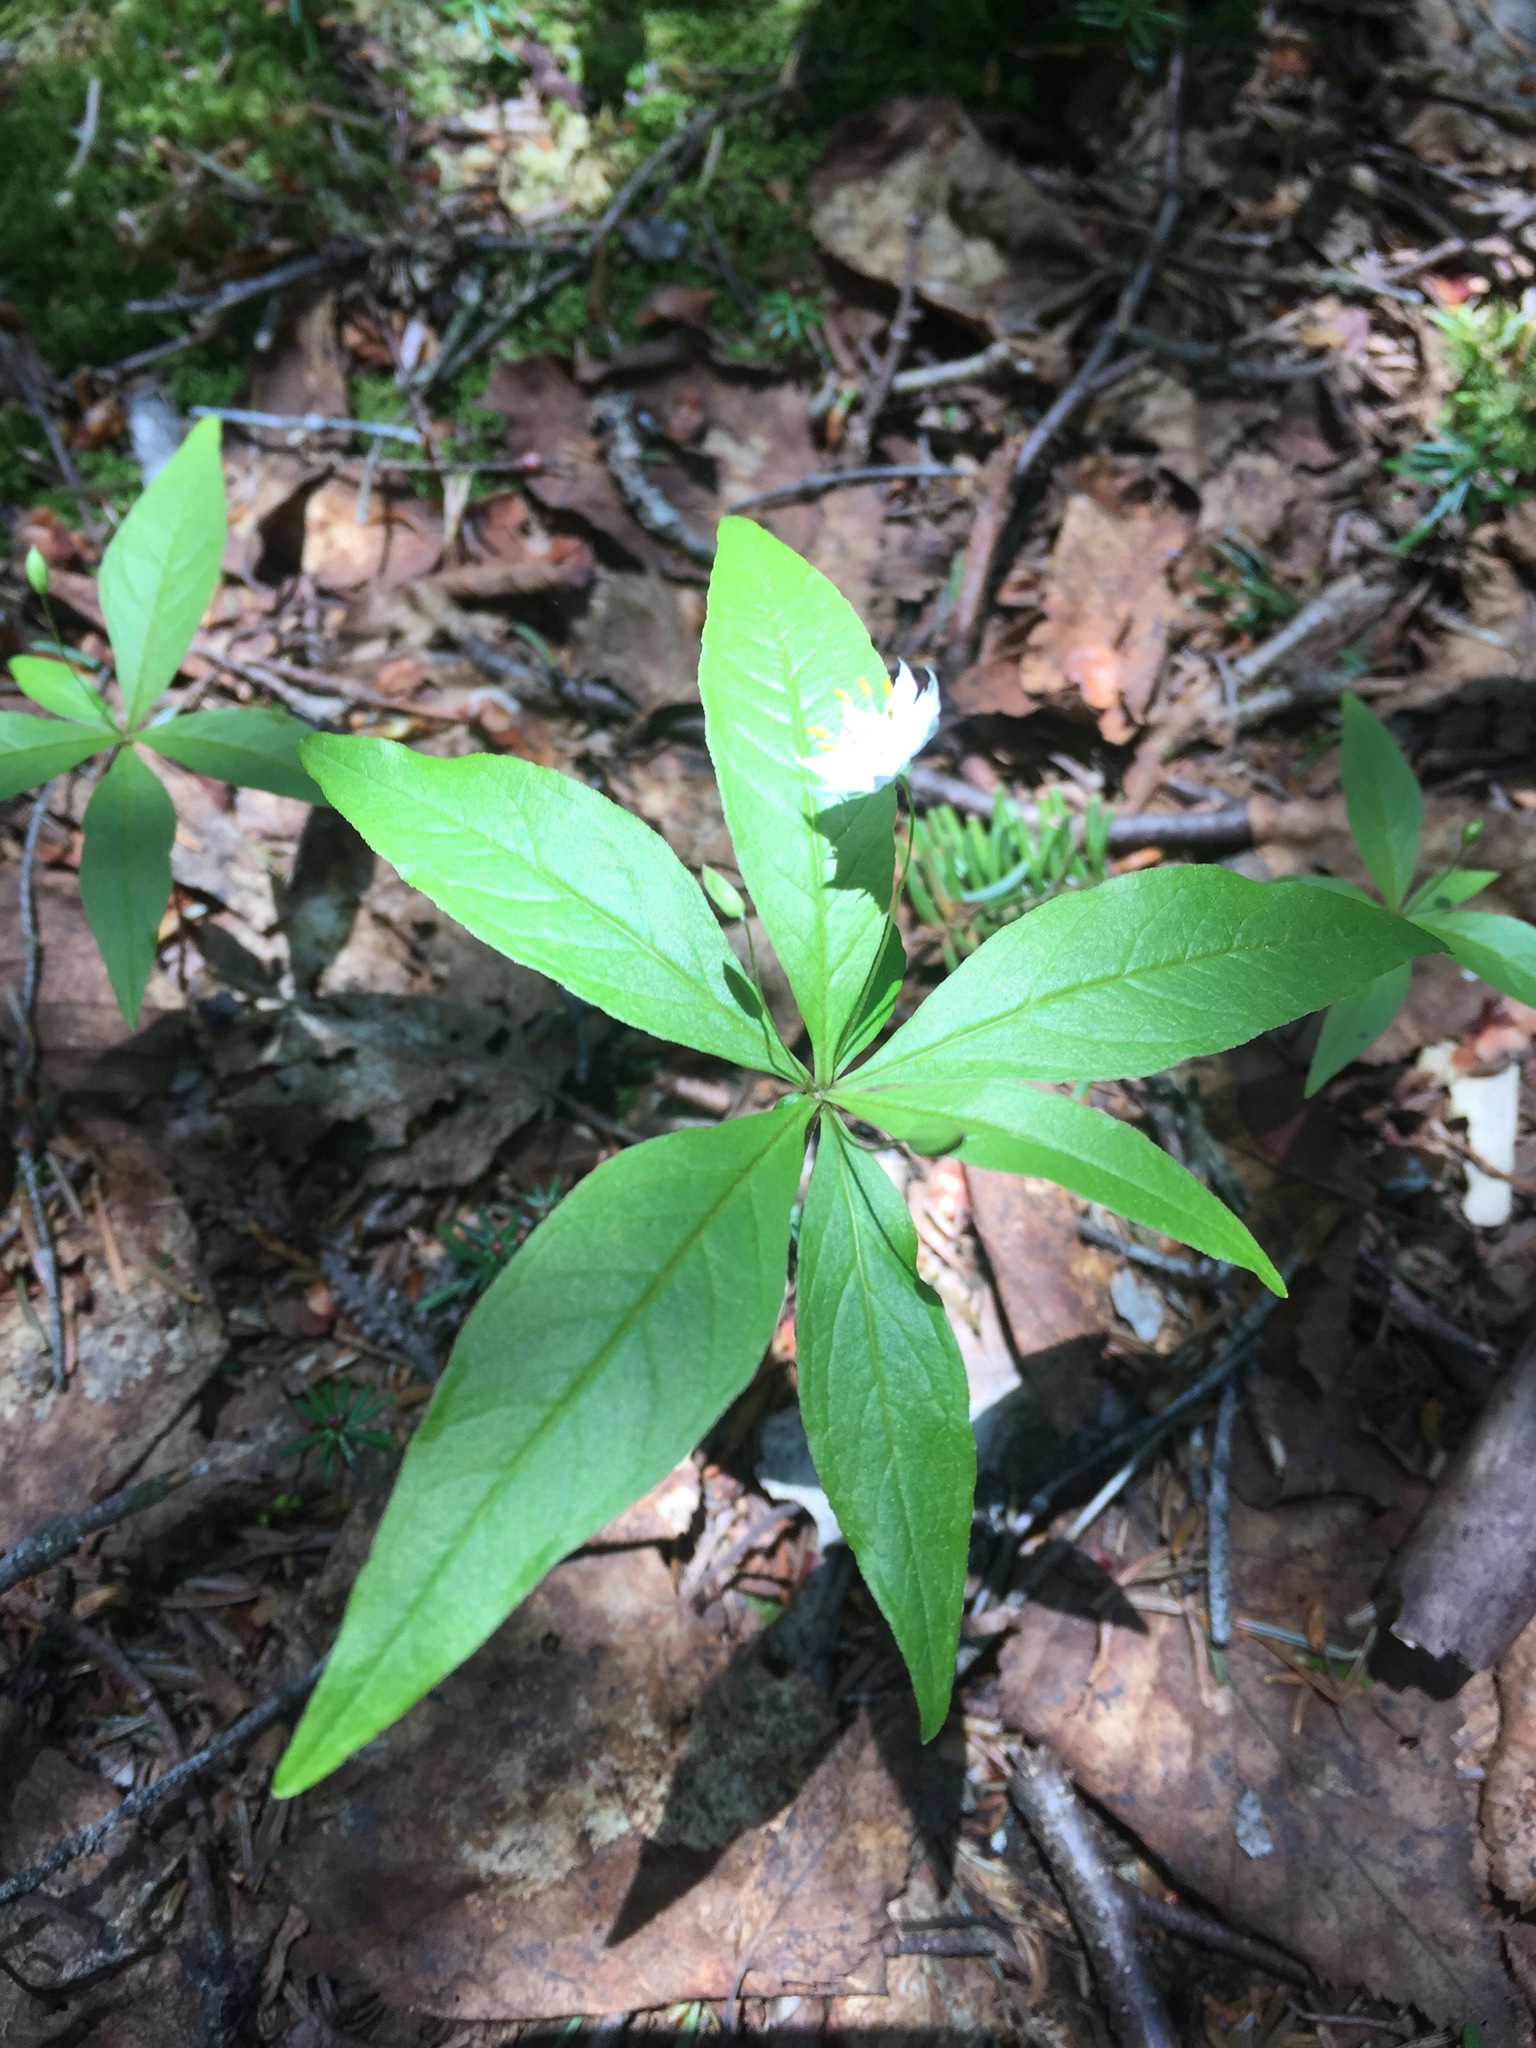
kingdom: Plantae
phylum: Tracheophyta
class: Magnoliopsida
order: Ericales
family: Primulaceae
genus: Lysimachia
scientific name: Lysimachia borealis
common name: American starflower
